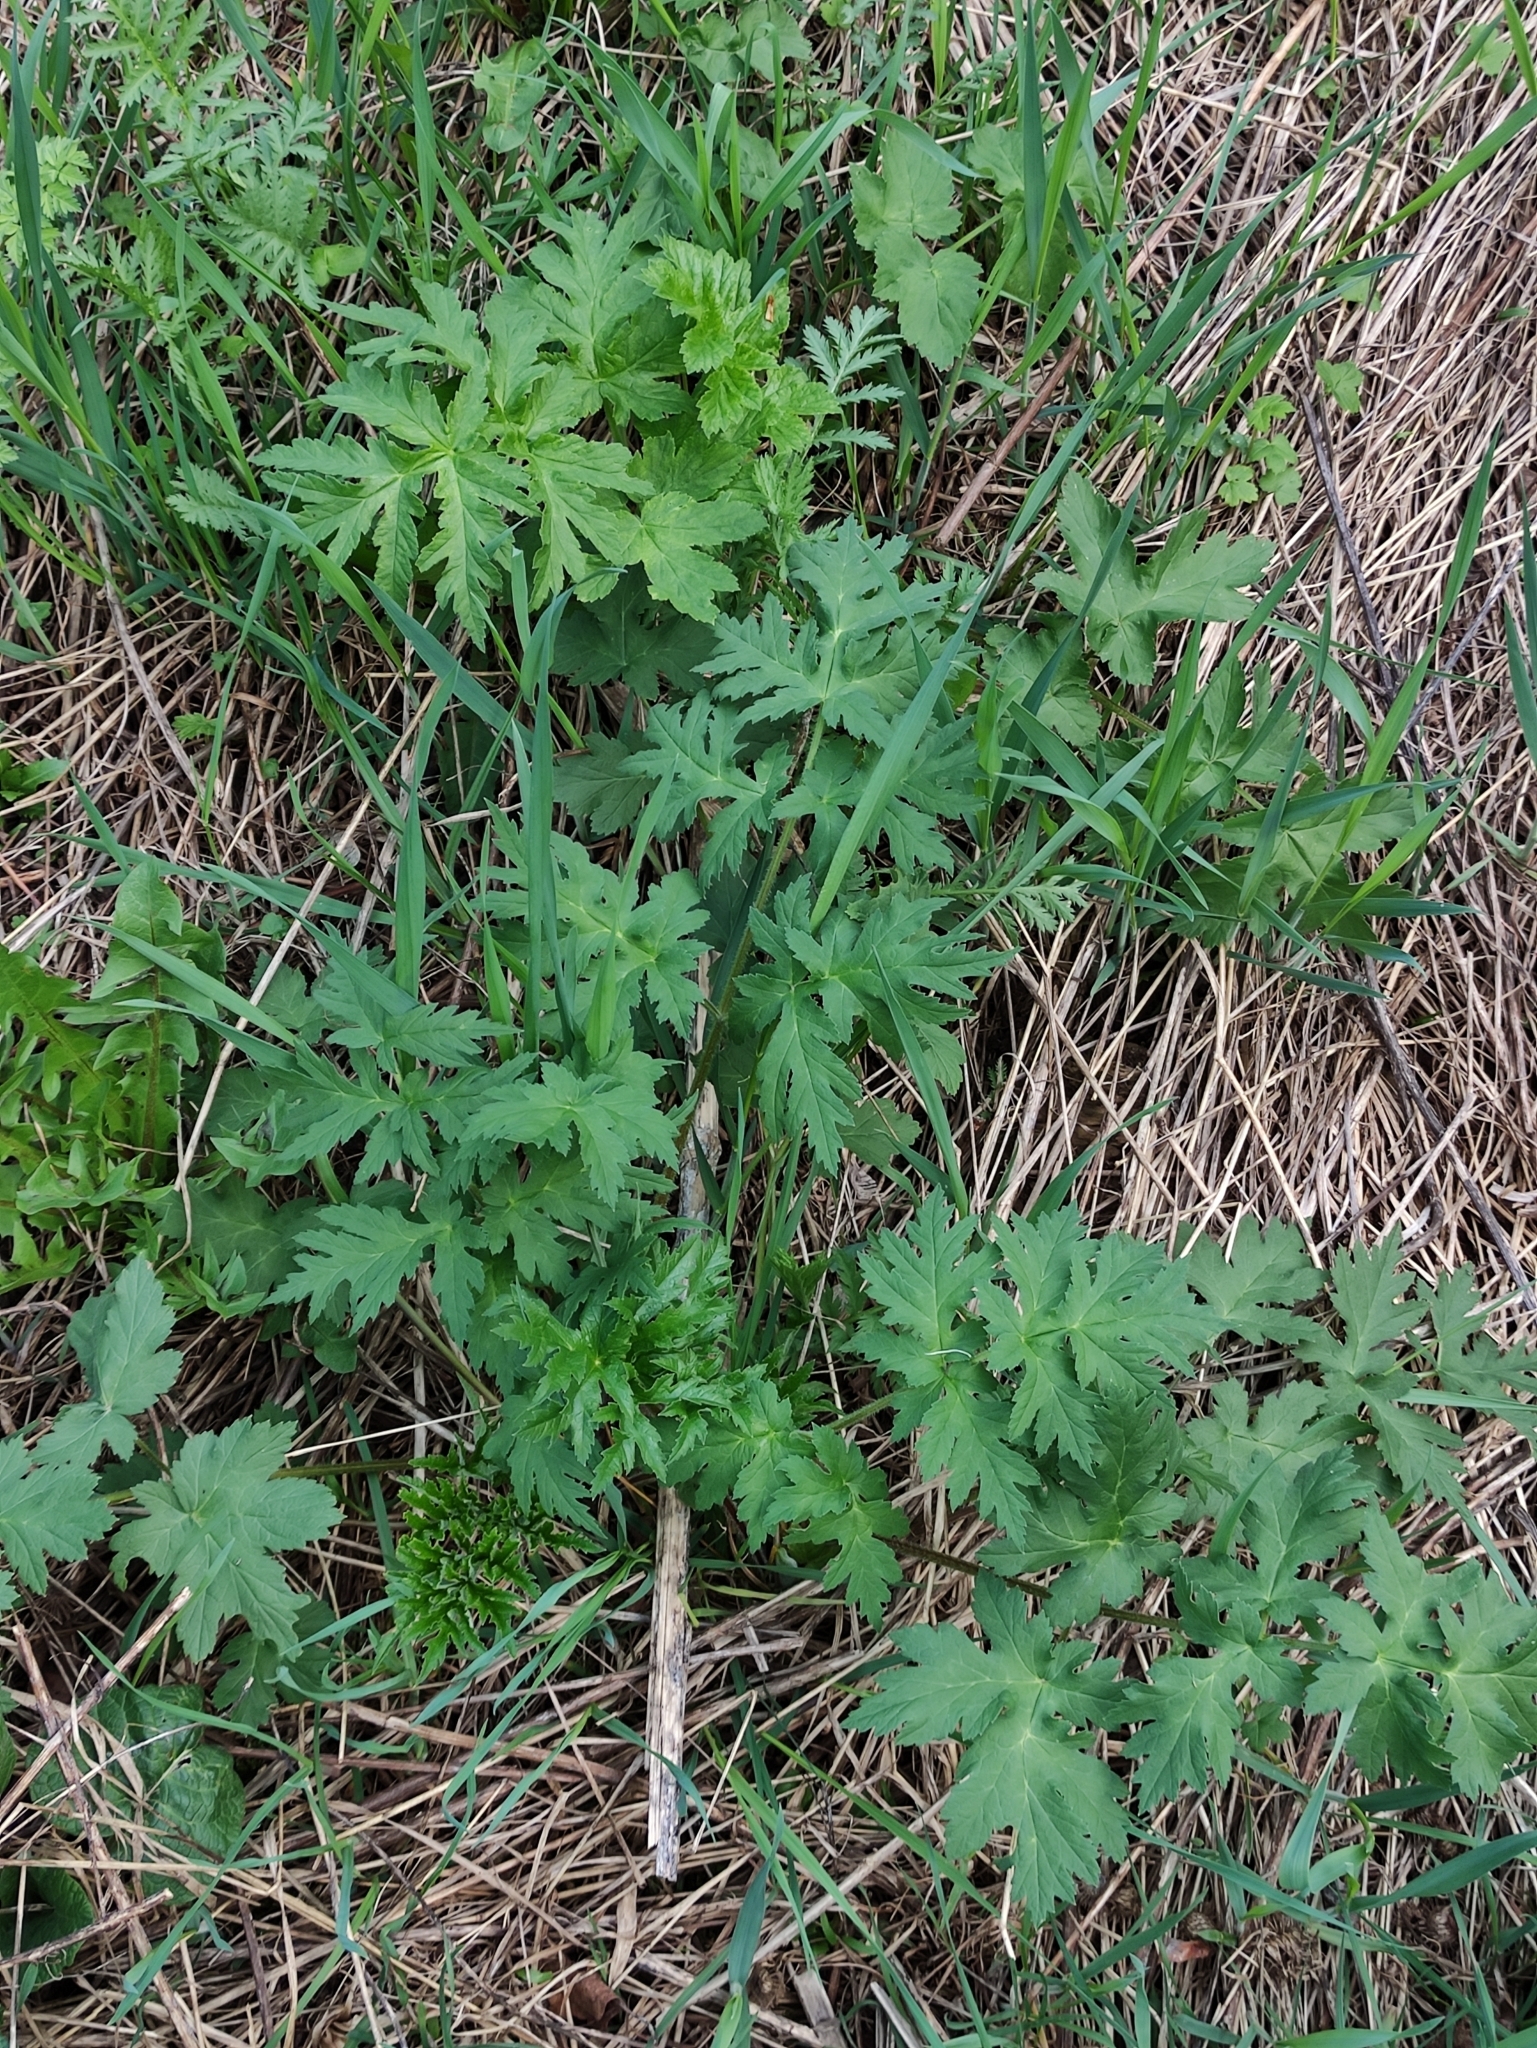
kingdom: Plantae
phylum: Tracheophyta
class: Magnoliopsida
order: Apiales
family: Apiaceae
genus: Heracleum
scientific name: Heracleum sphondylium
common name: Hogweed
